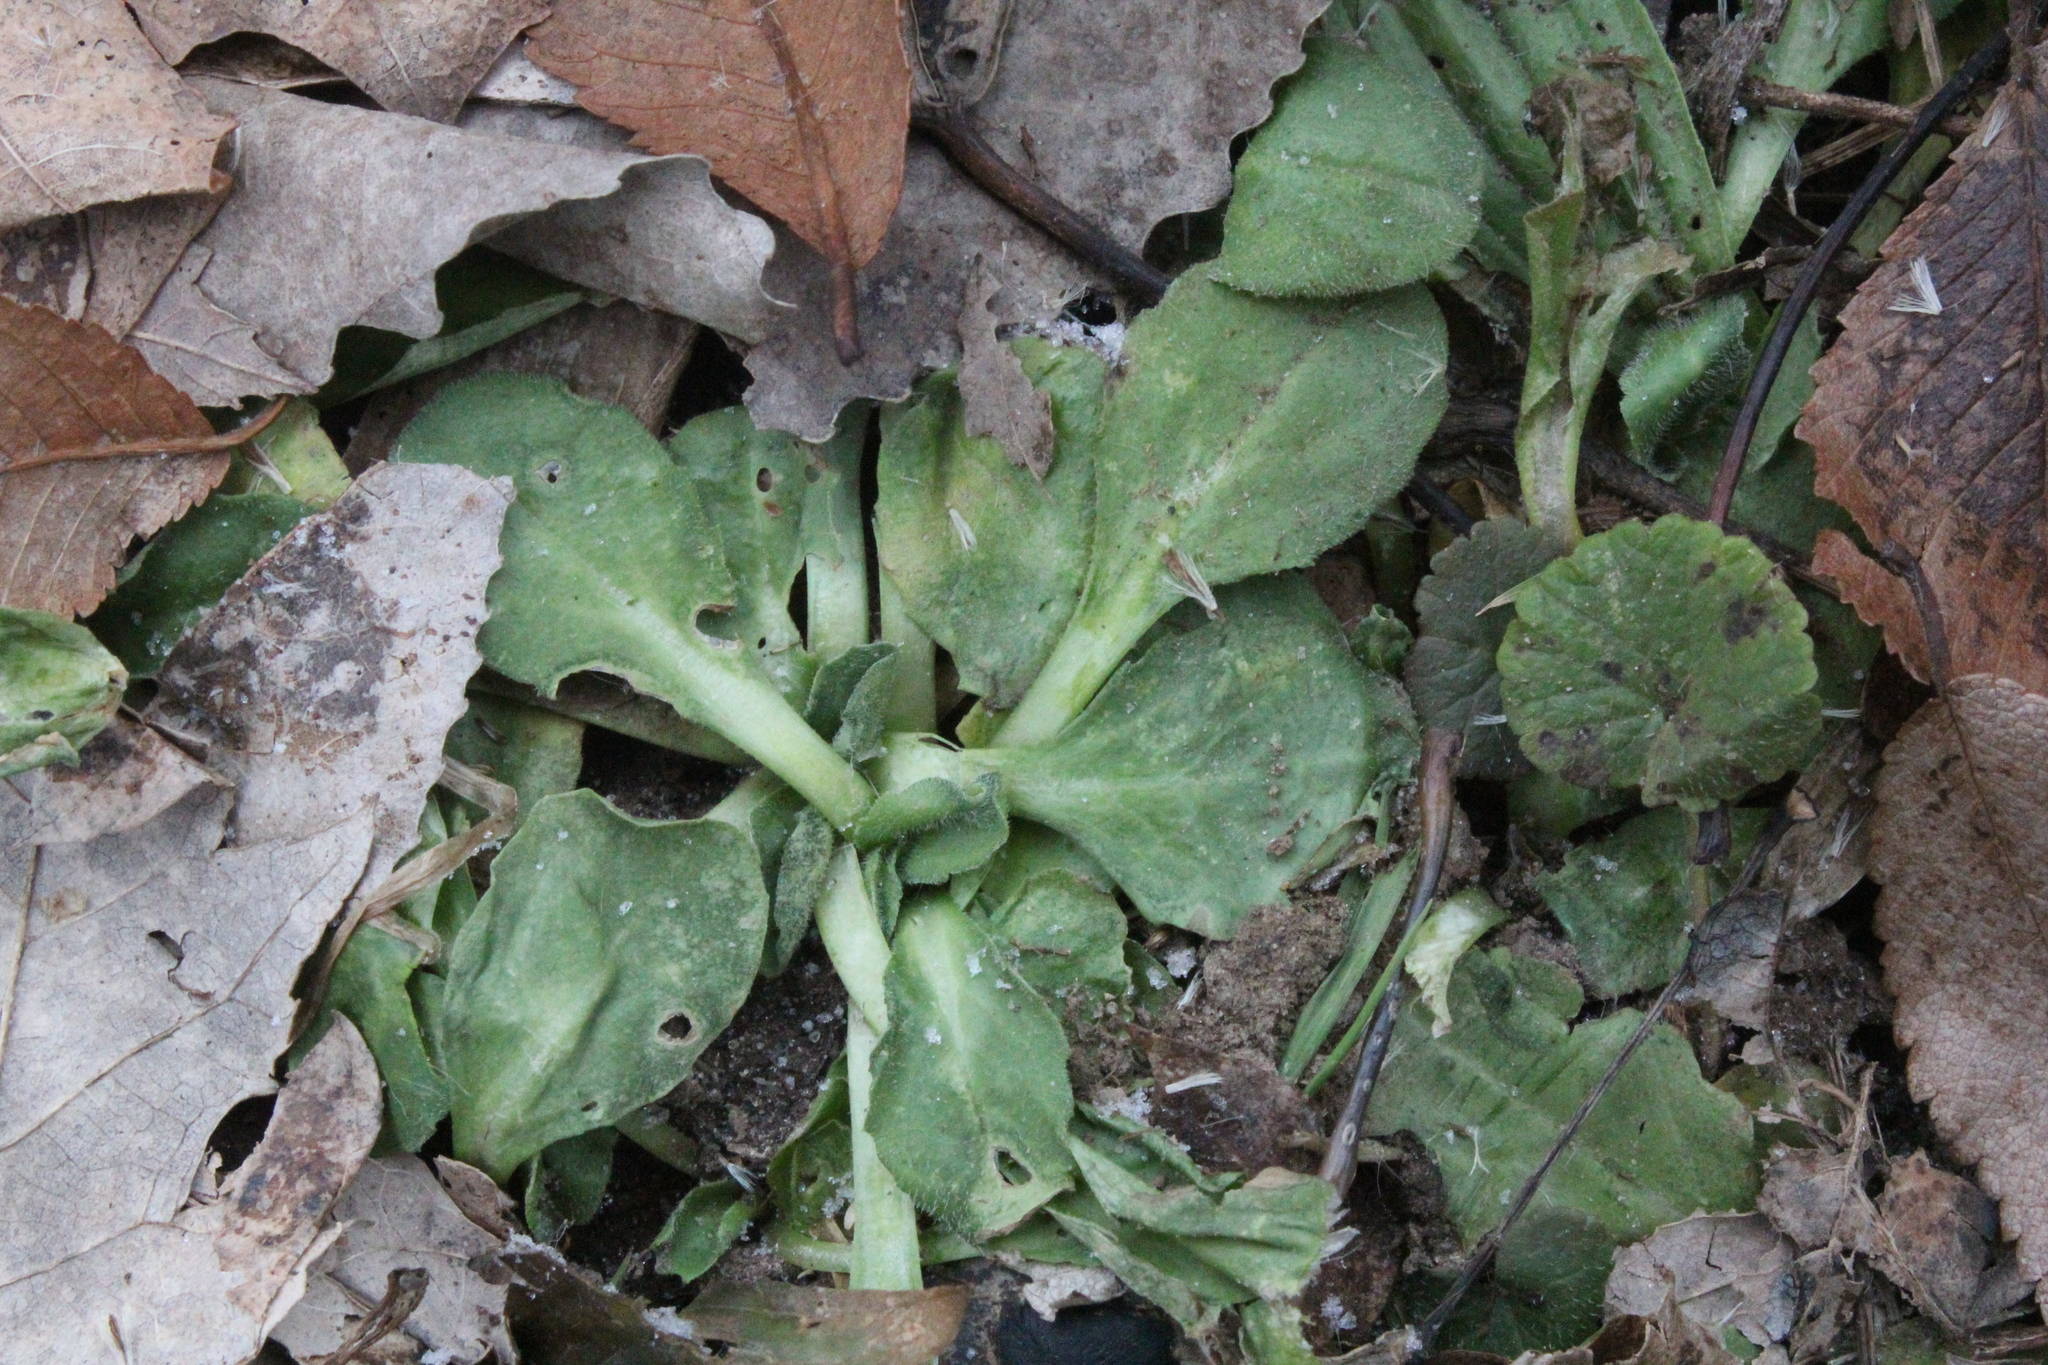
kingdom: Plantae
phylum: Tracheophyta
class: Magnoliopsida
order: Lamiales
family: Plantaginaceae
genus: Plantago
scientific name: Plantago major
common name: Common plantain
